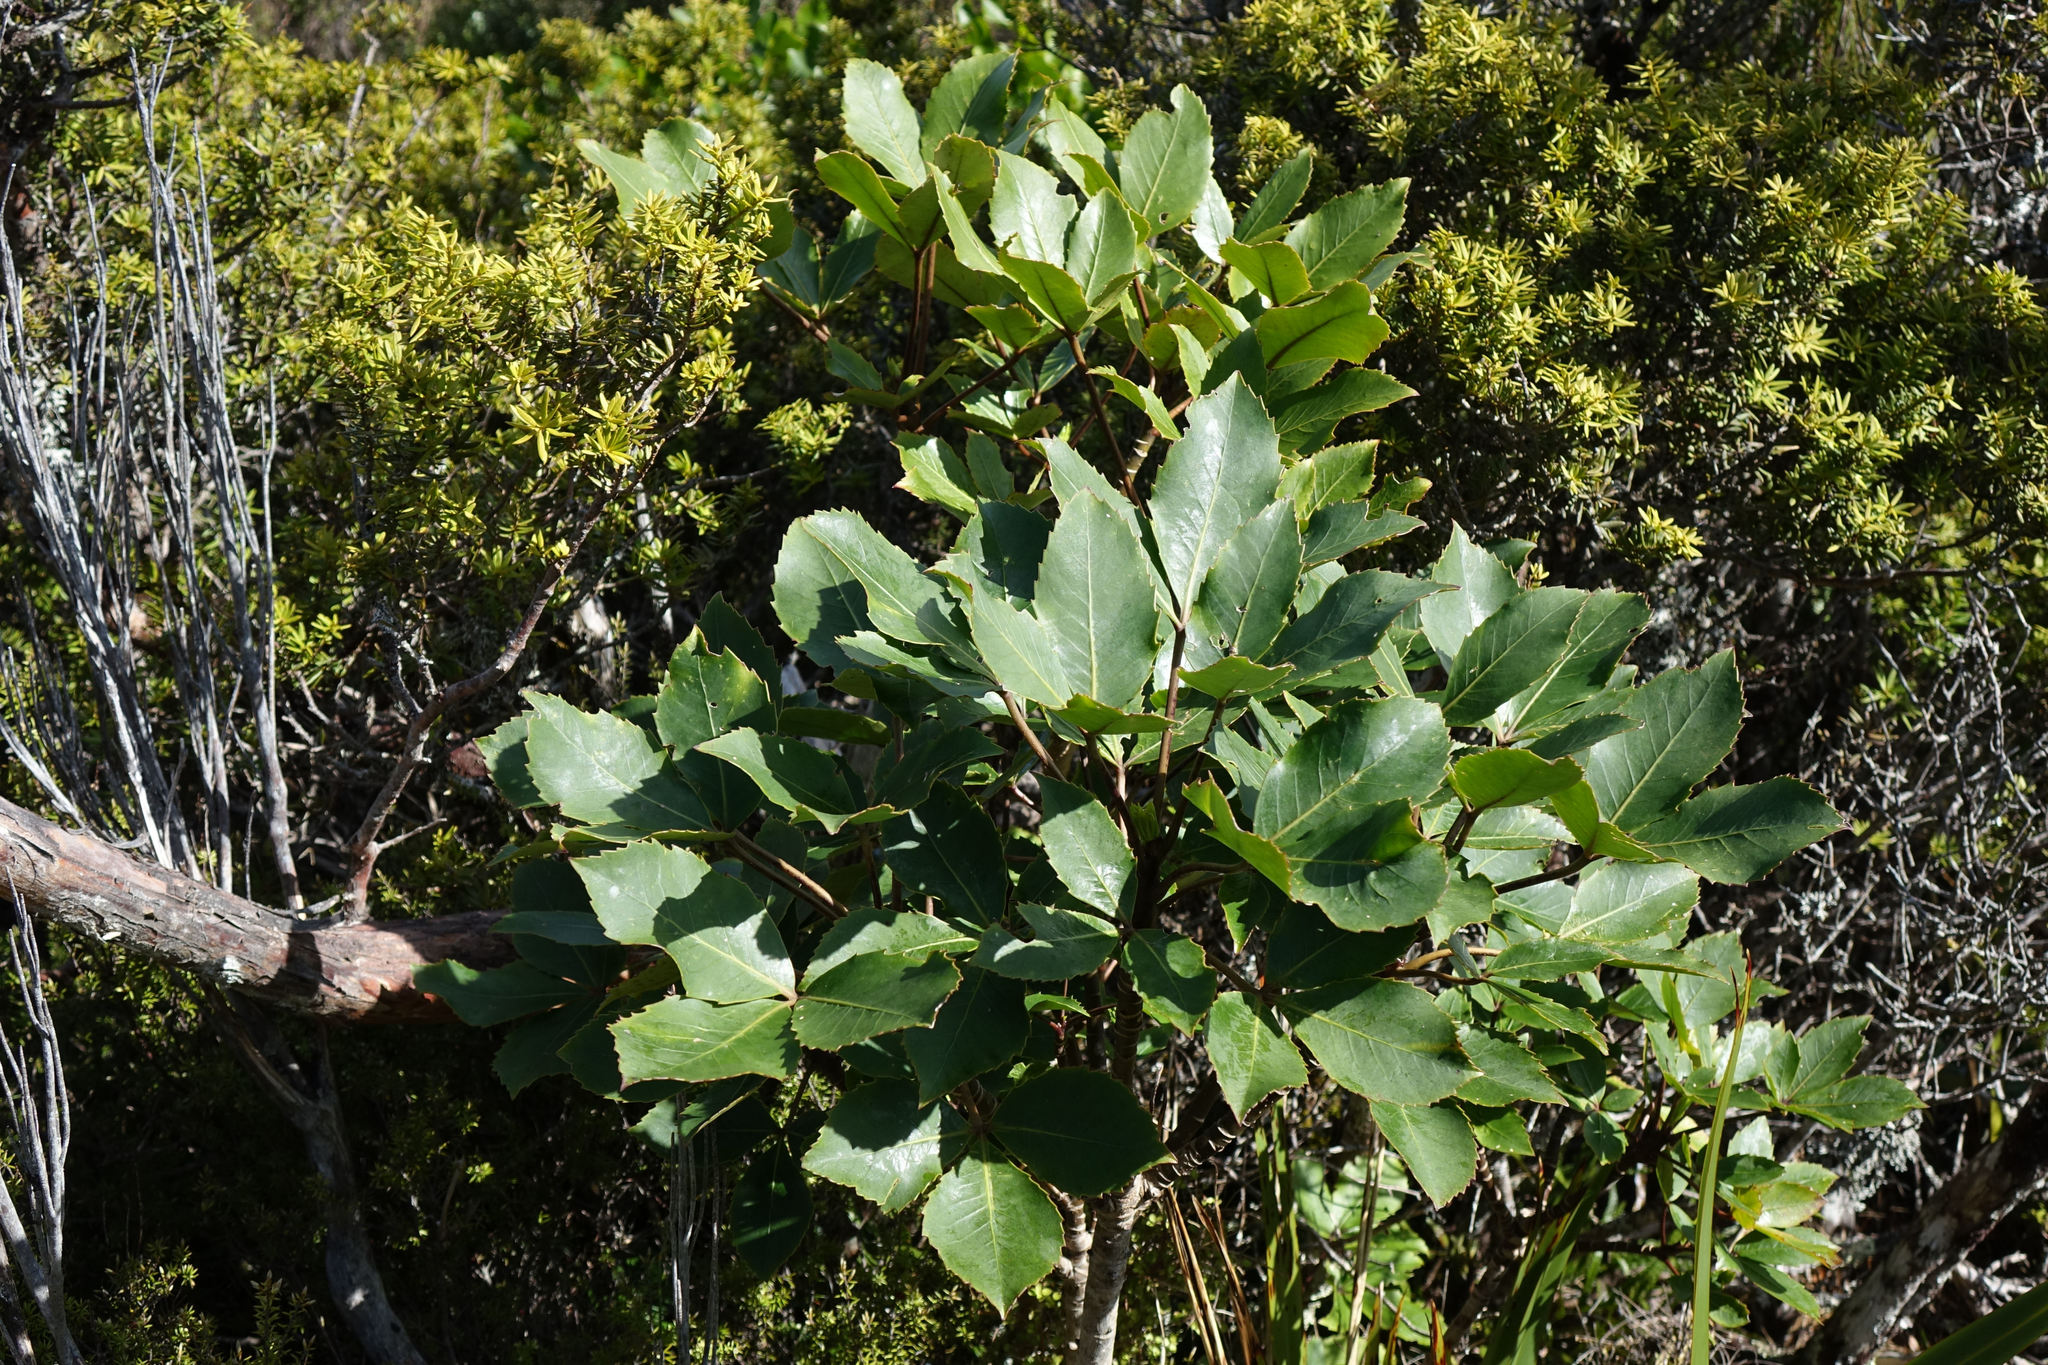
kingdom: Plantae
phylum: Tracheophyta
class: Magnoliopsida
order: Apiales
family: Araliaceae
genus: Neopanax
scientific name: Neopanax colensoi
